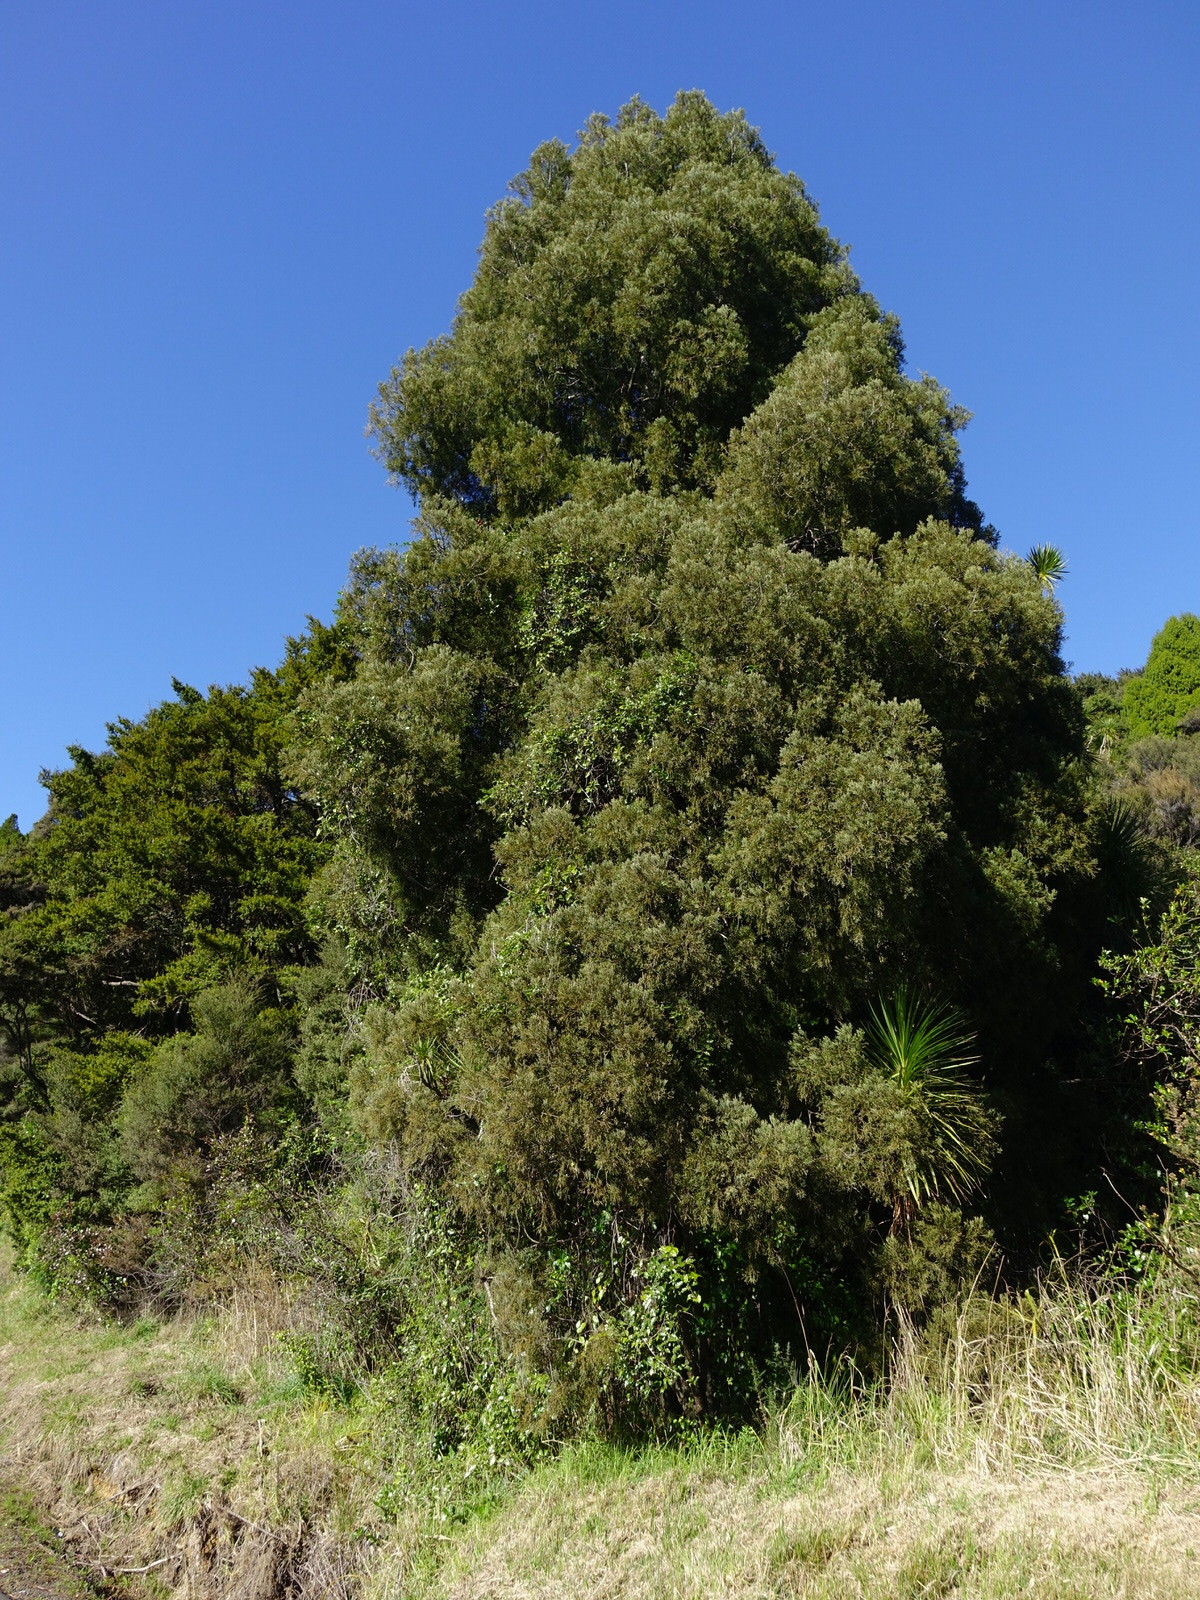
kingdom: Plantae
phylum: Tracheophyta
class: Magnoliopsida
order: Malpighiales
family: Passifloraceae
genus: Passiflora
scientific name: Passiflora tetrandra
